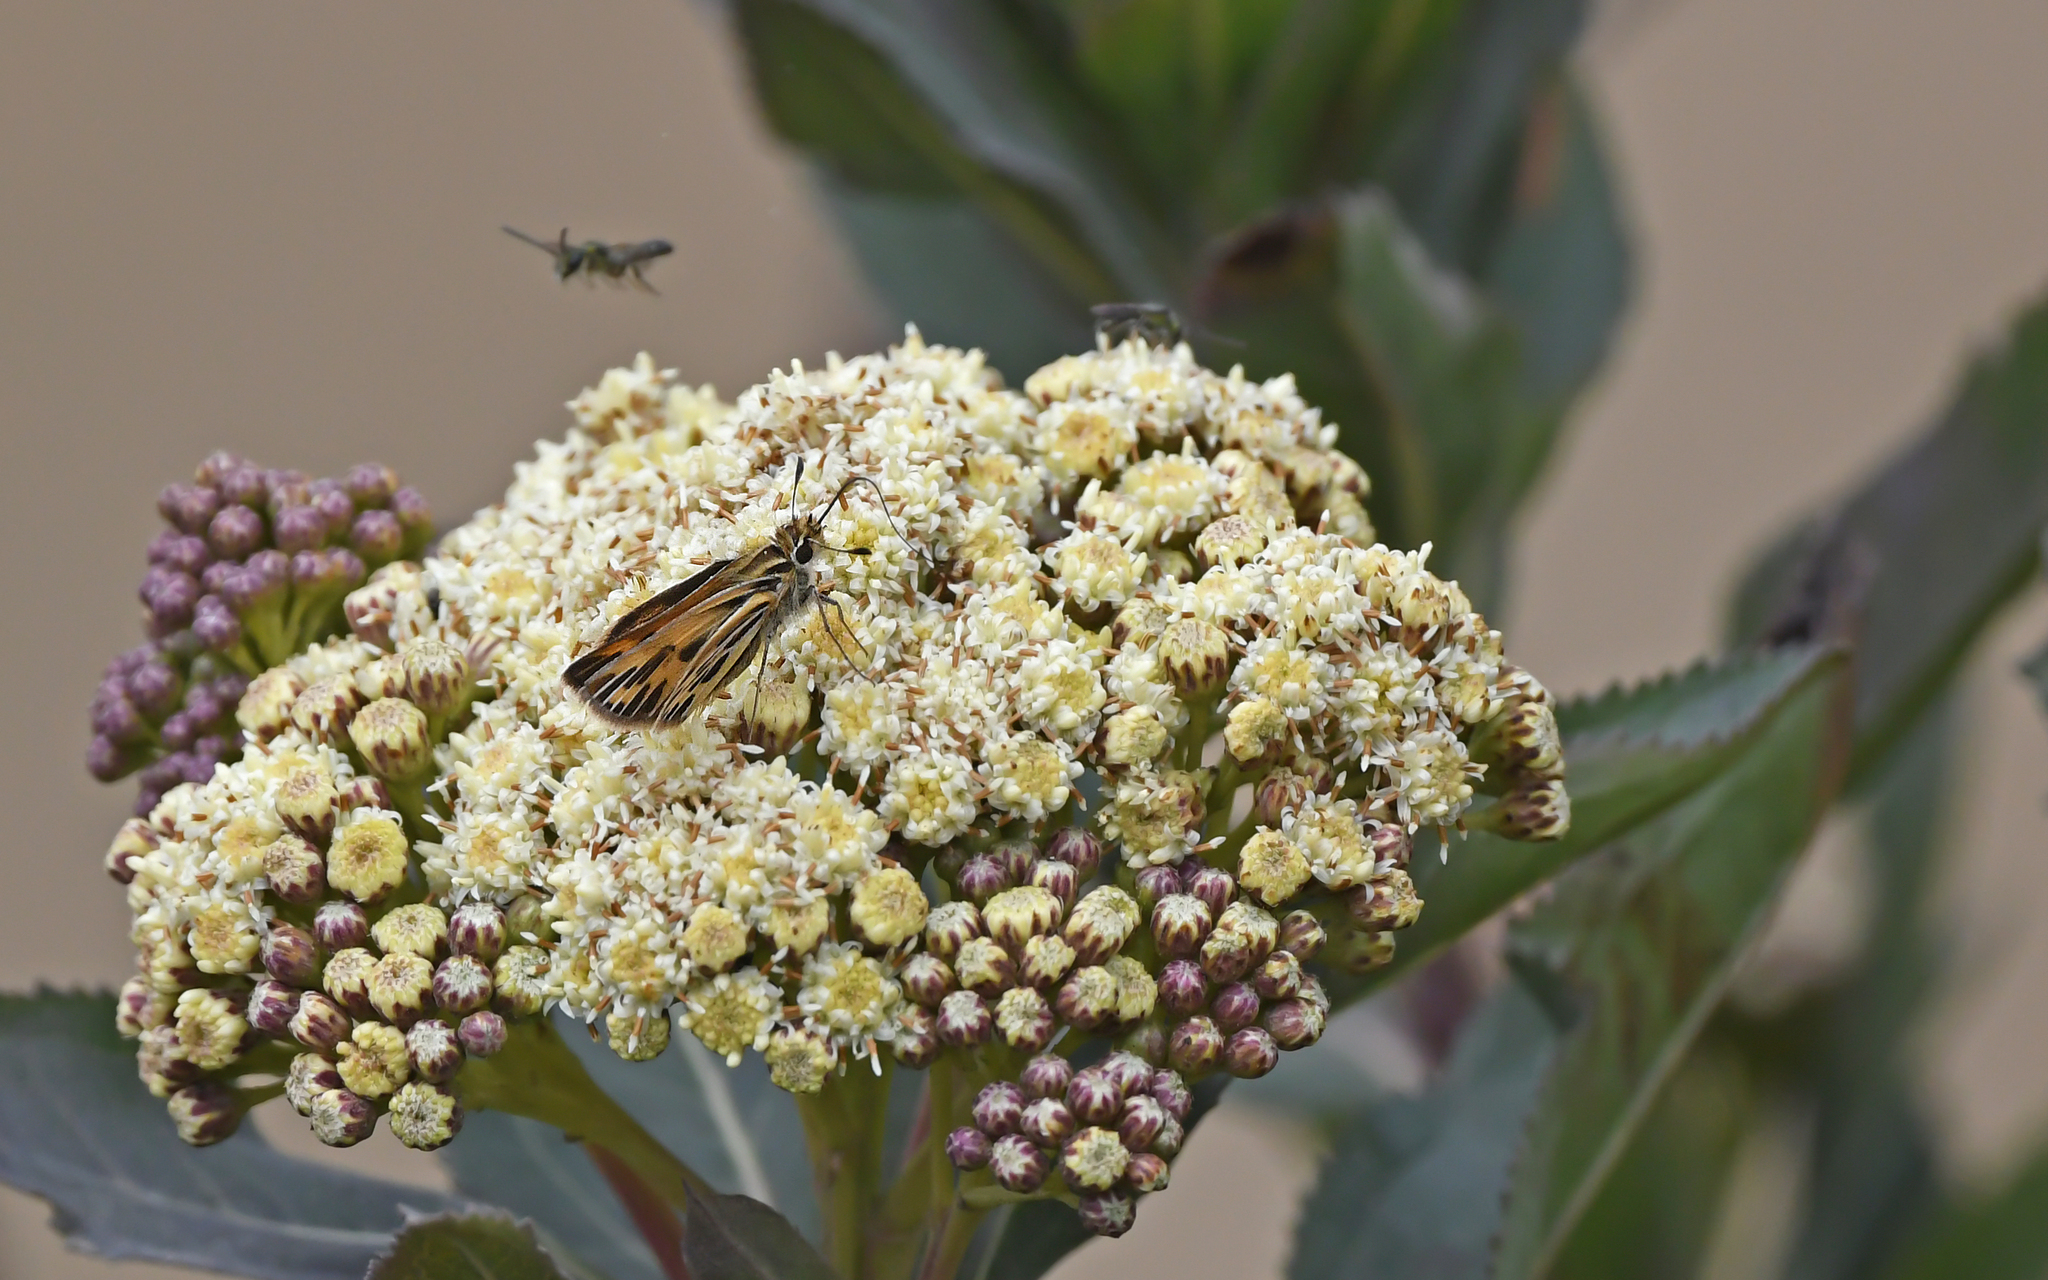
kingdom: Animalia
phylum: Arthropoda
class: Insecta
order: Lepidoptera
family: Hesperiidae
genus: Hylephila
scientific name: Hylephila boulleti
